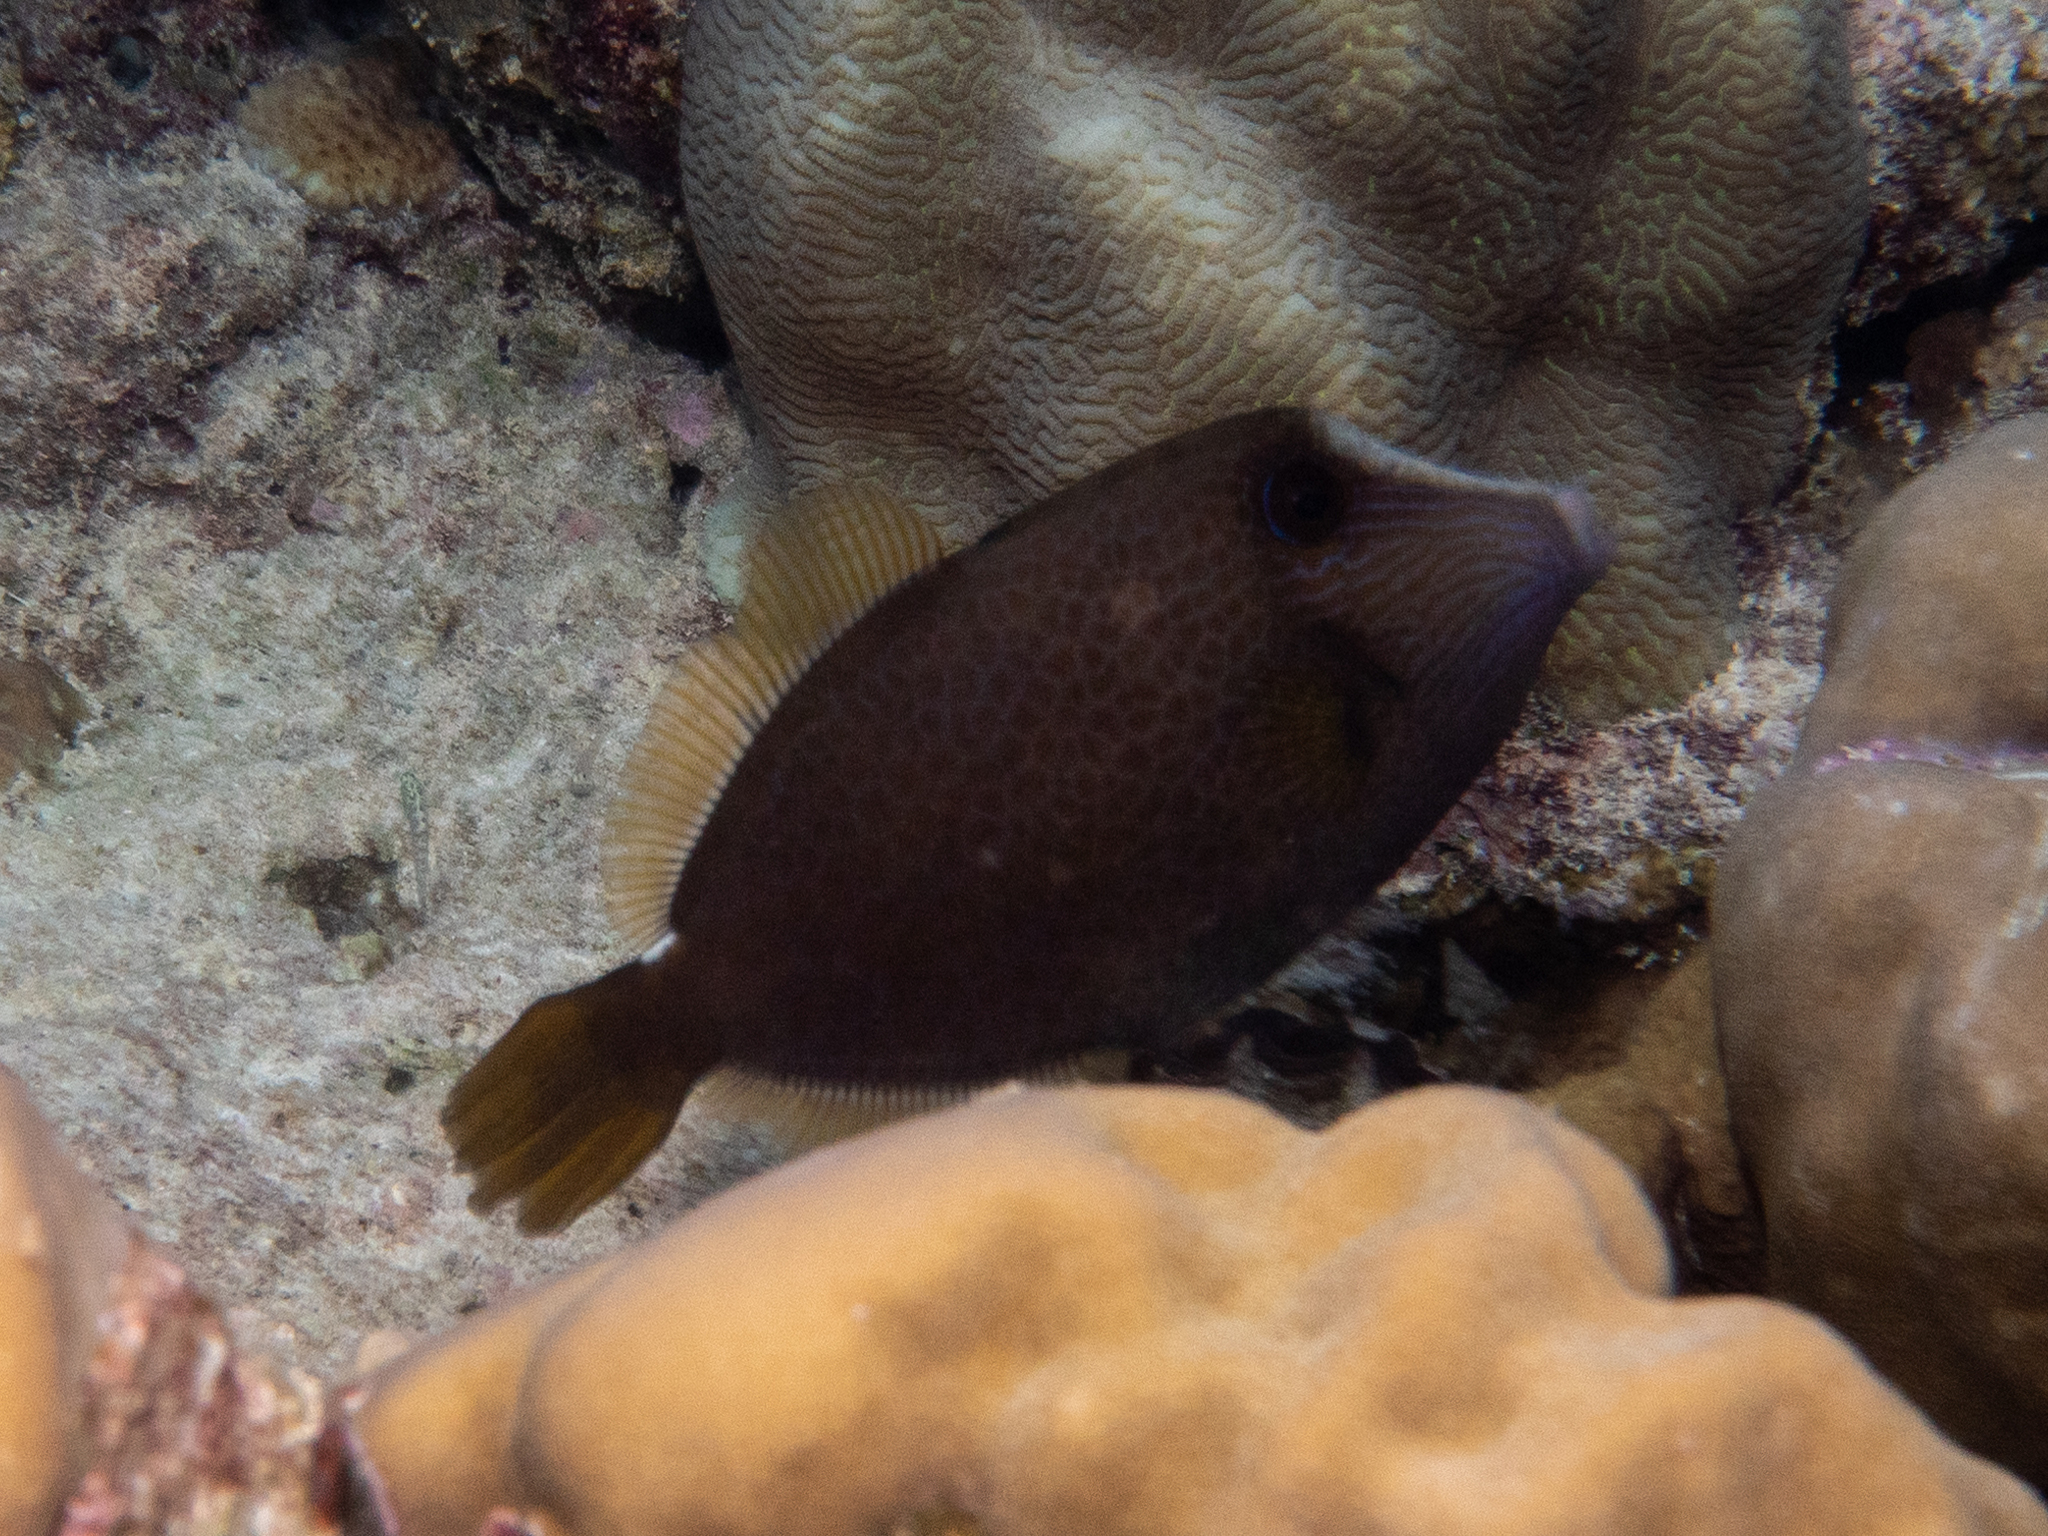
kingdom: Animalia
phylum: Chordata
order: Tetraodontiformes
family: Monacanthidae
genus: Cantherhines
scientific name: Cantherhines pardalis
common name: Honeycomb filefish
